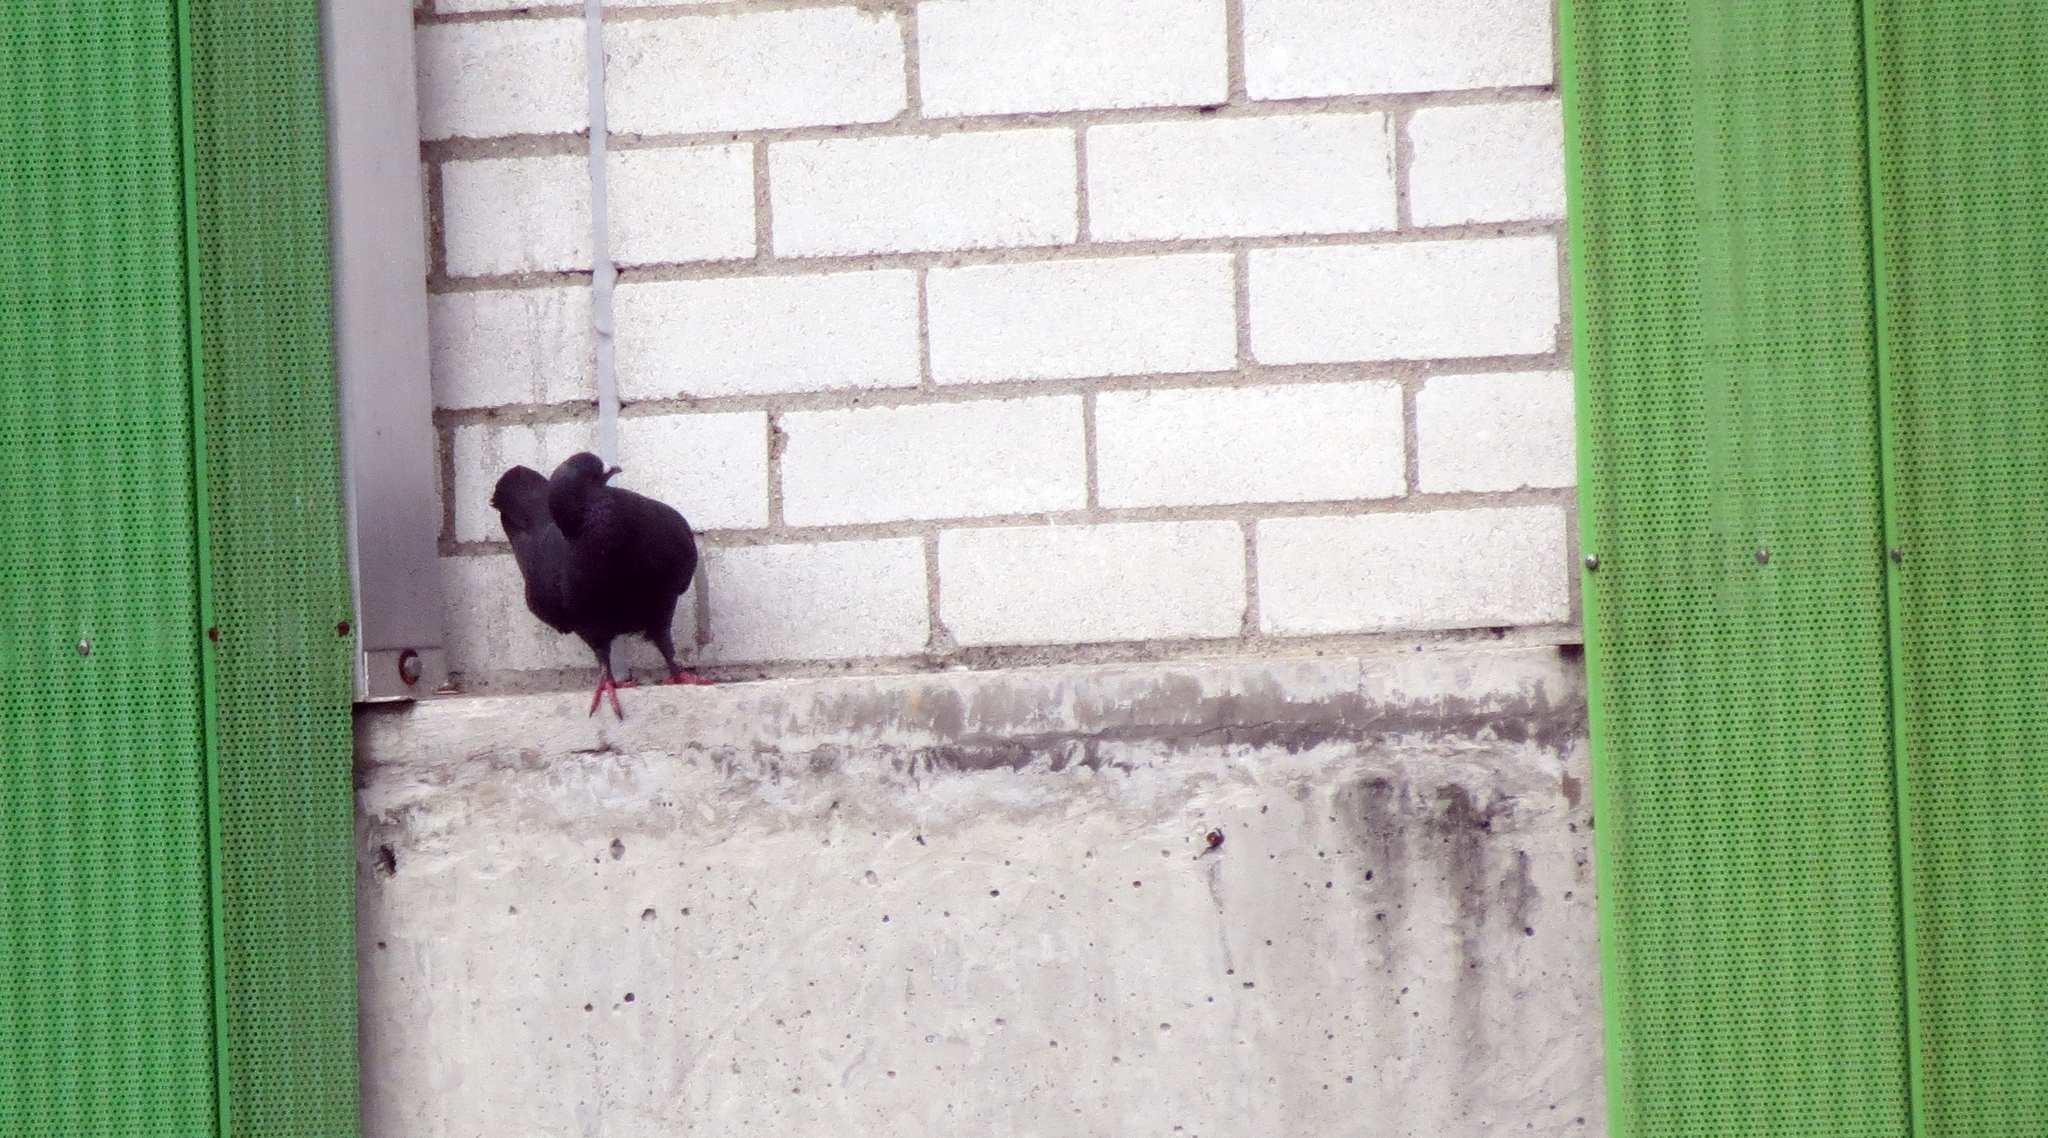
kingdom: Animalia
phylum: Chordata
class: Aves
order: Columbiformes
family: Columbidae
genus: Columba
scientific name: Columba livia
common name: Rock pigeon
